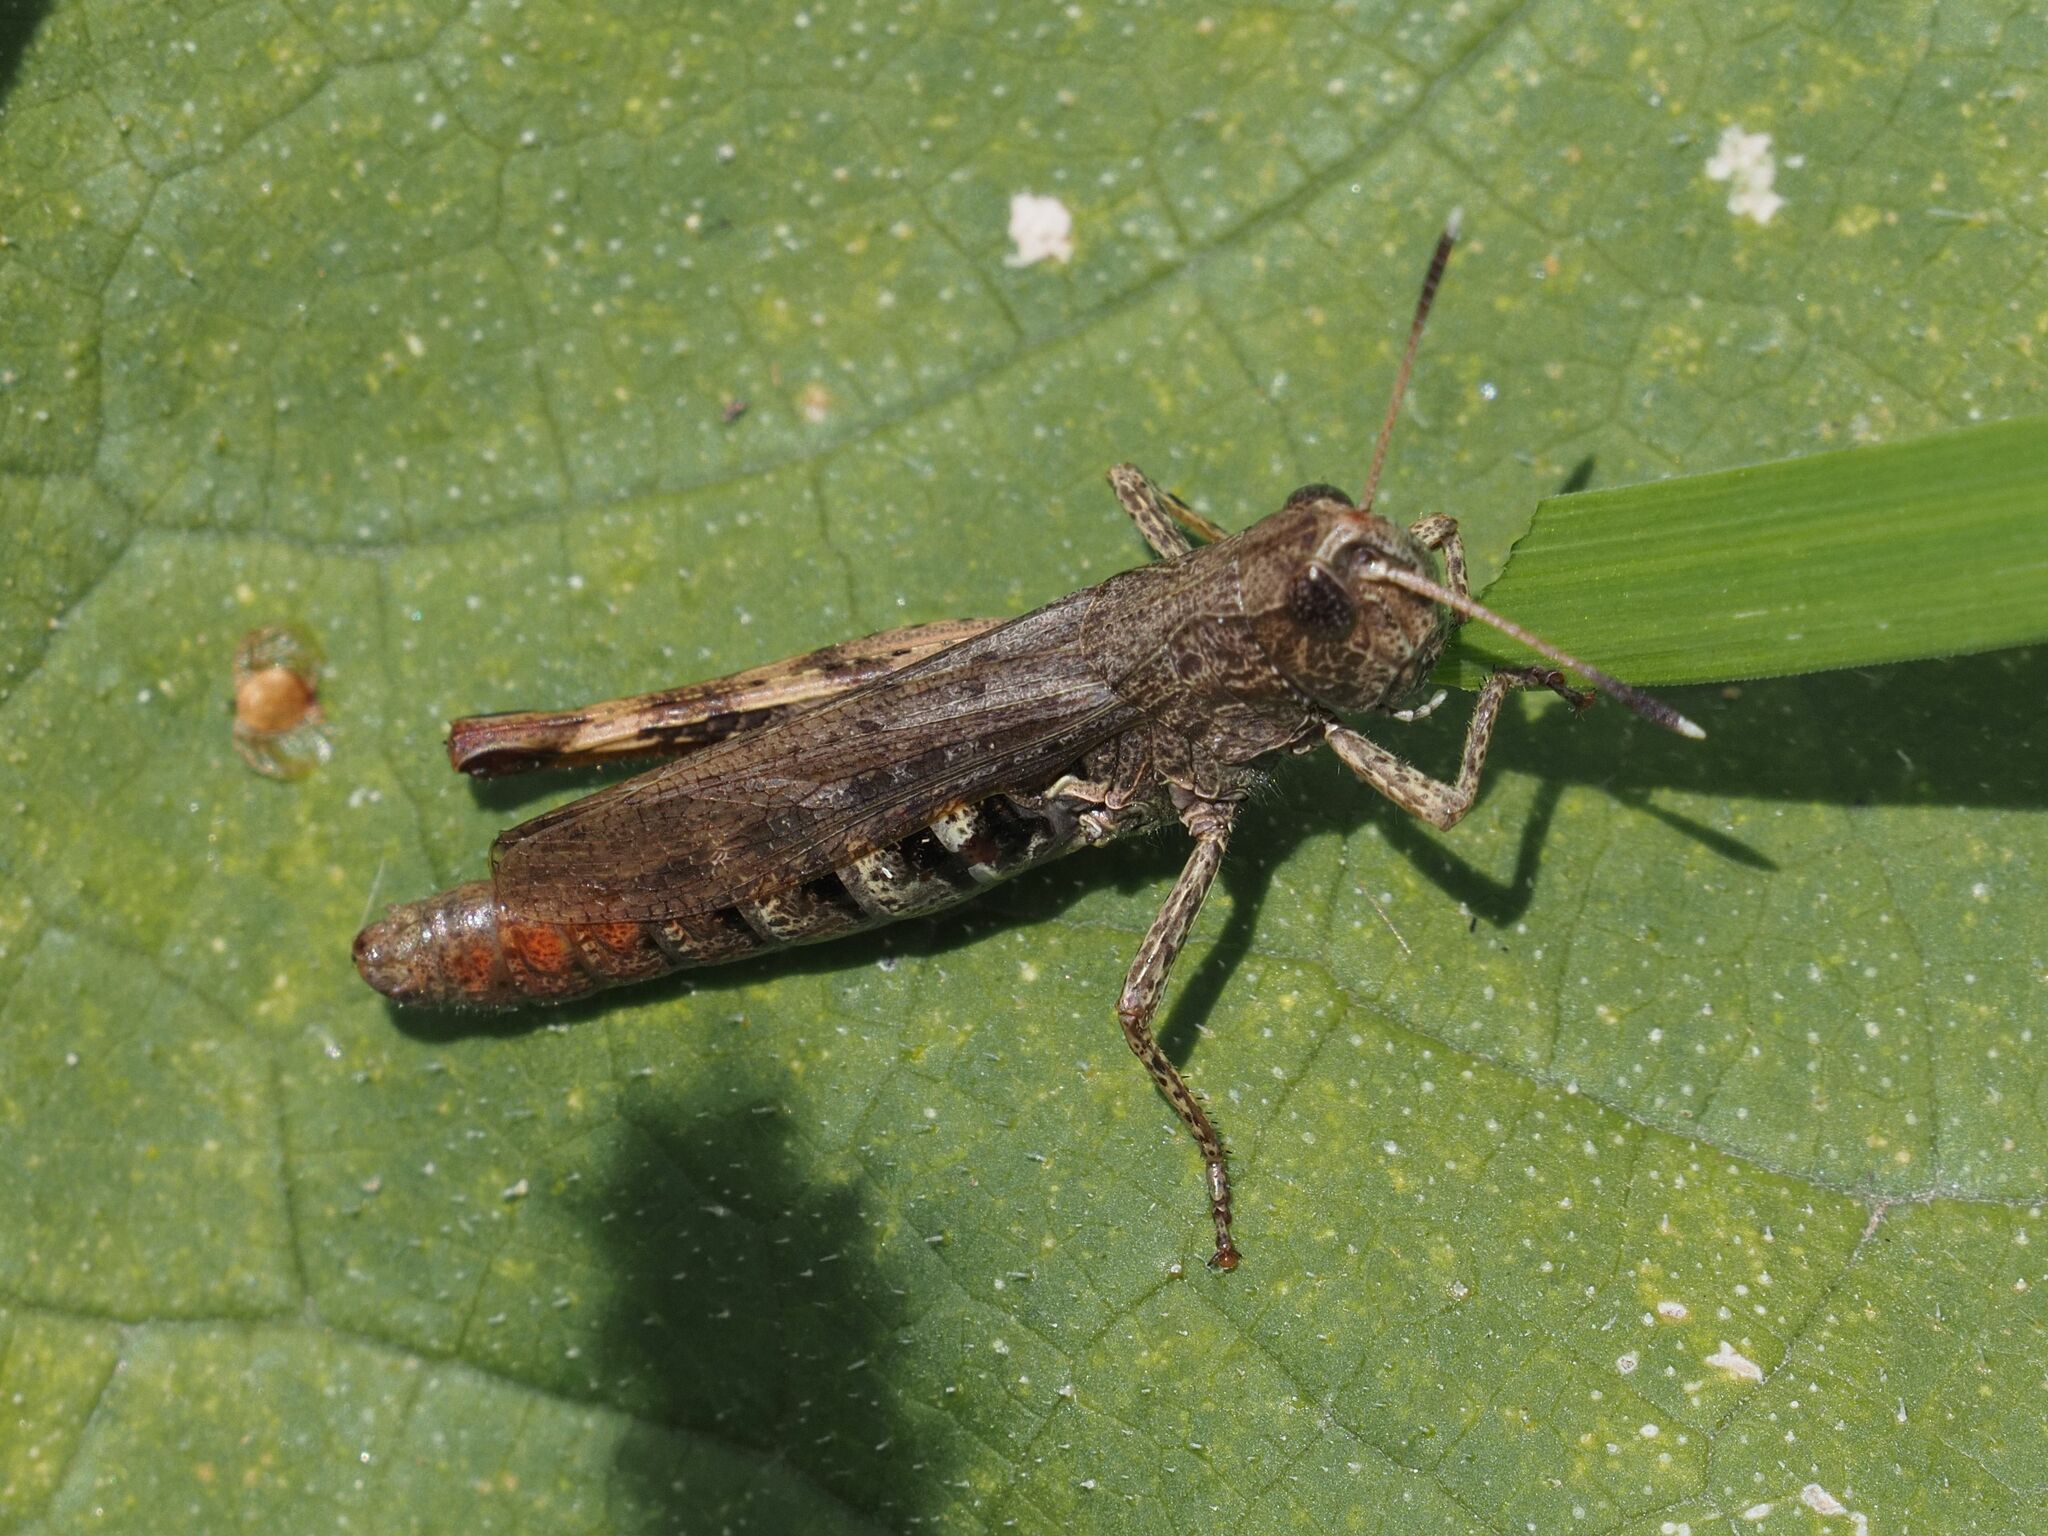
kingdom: Animalia
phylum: Arthropoda
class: Insecta
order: Orthoptera
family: Acrididae
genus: Gomphocerippus
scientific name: Gomphocerippus rufus
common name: Rufous grasshopper
